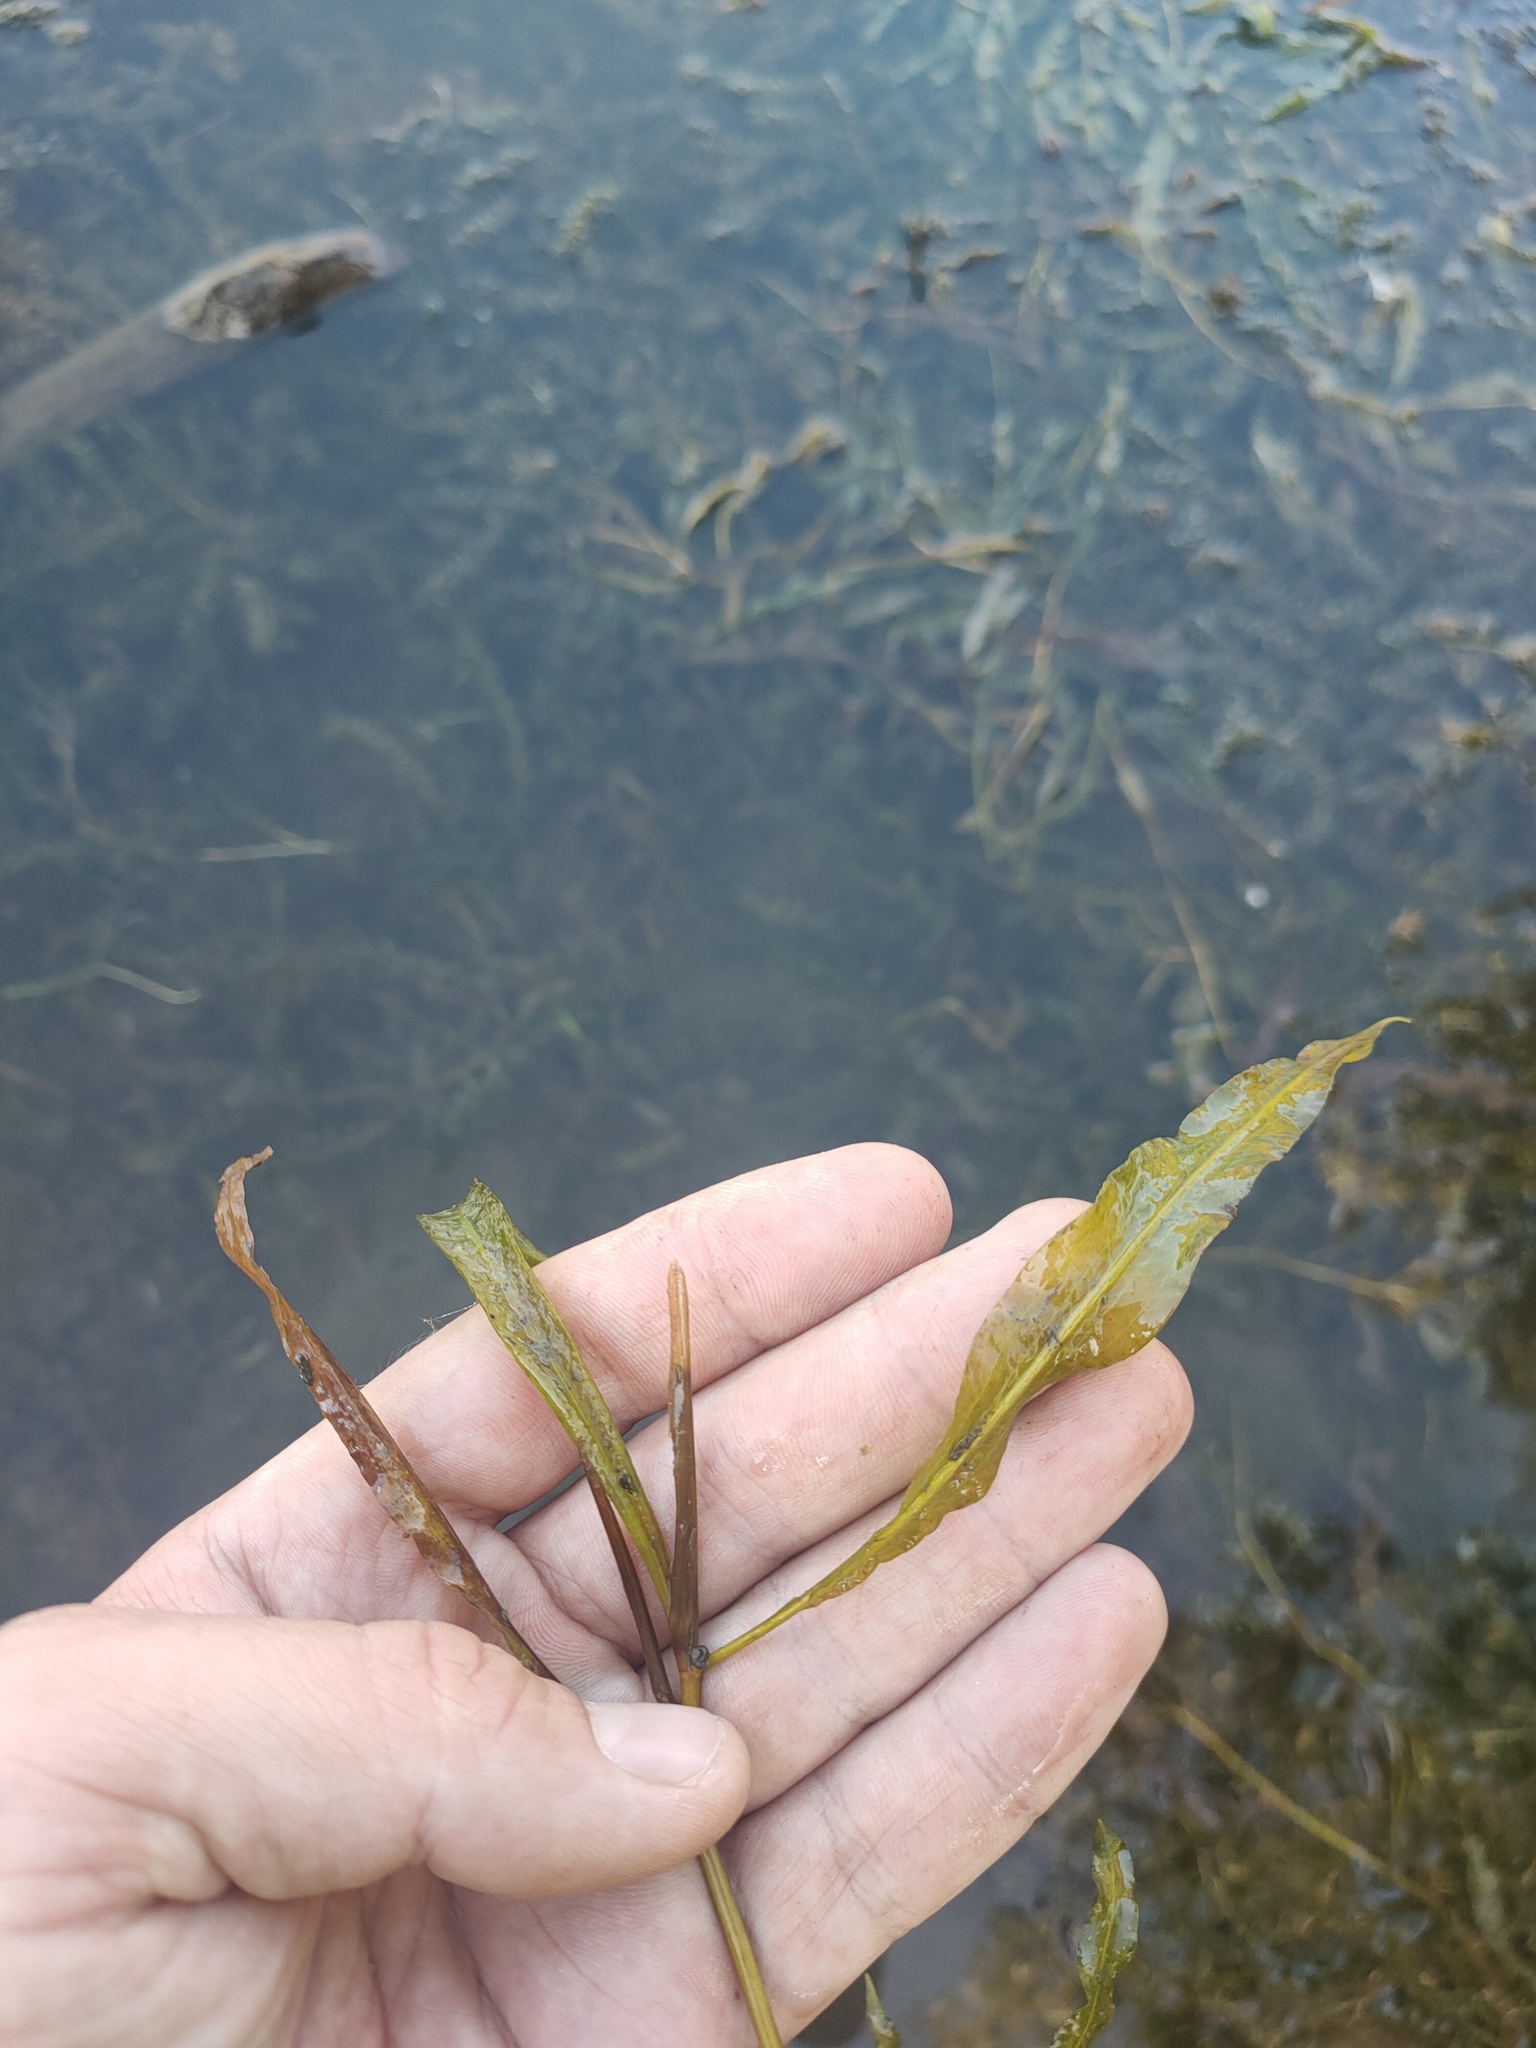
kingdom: Plantae
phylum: Tracheophyta
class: Liliopsida
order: Alismatales
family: Potamogetonaceae
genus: Potamogeton
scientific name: Potamogeton lucens
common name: Shining pondweed
